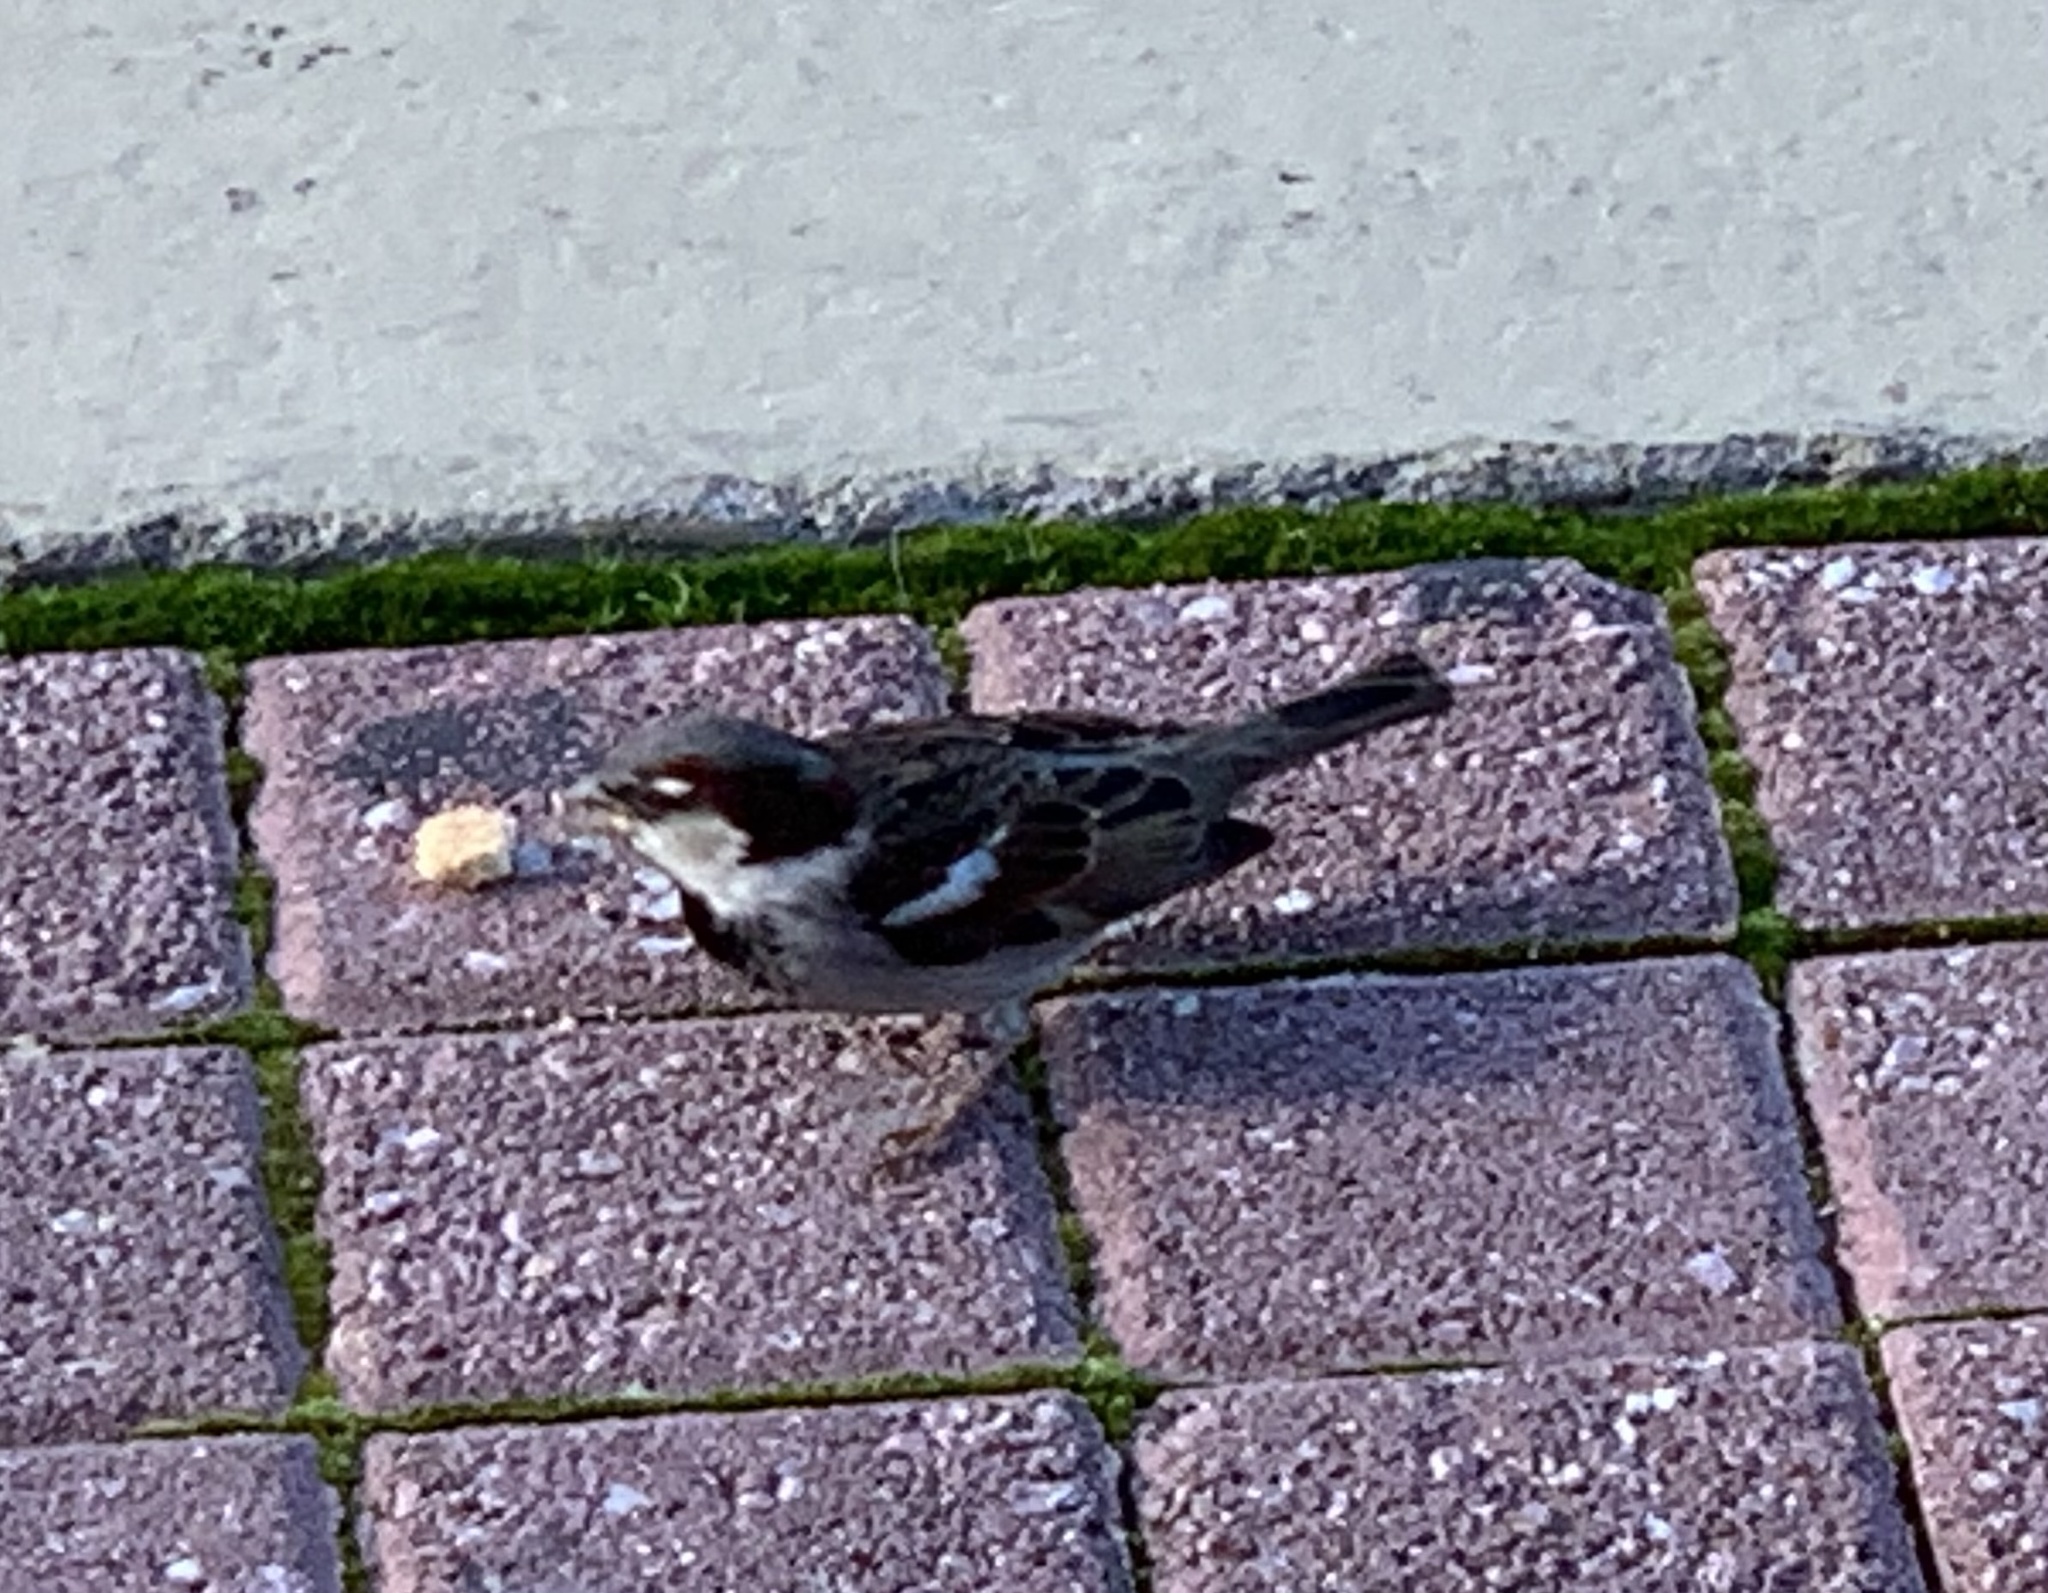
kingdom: Animalia
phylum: Chordata
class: Aves
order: Passeriformes
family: Passeridae
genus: Passer
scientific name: Passer domesticus
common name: House sparrow
